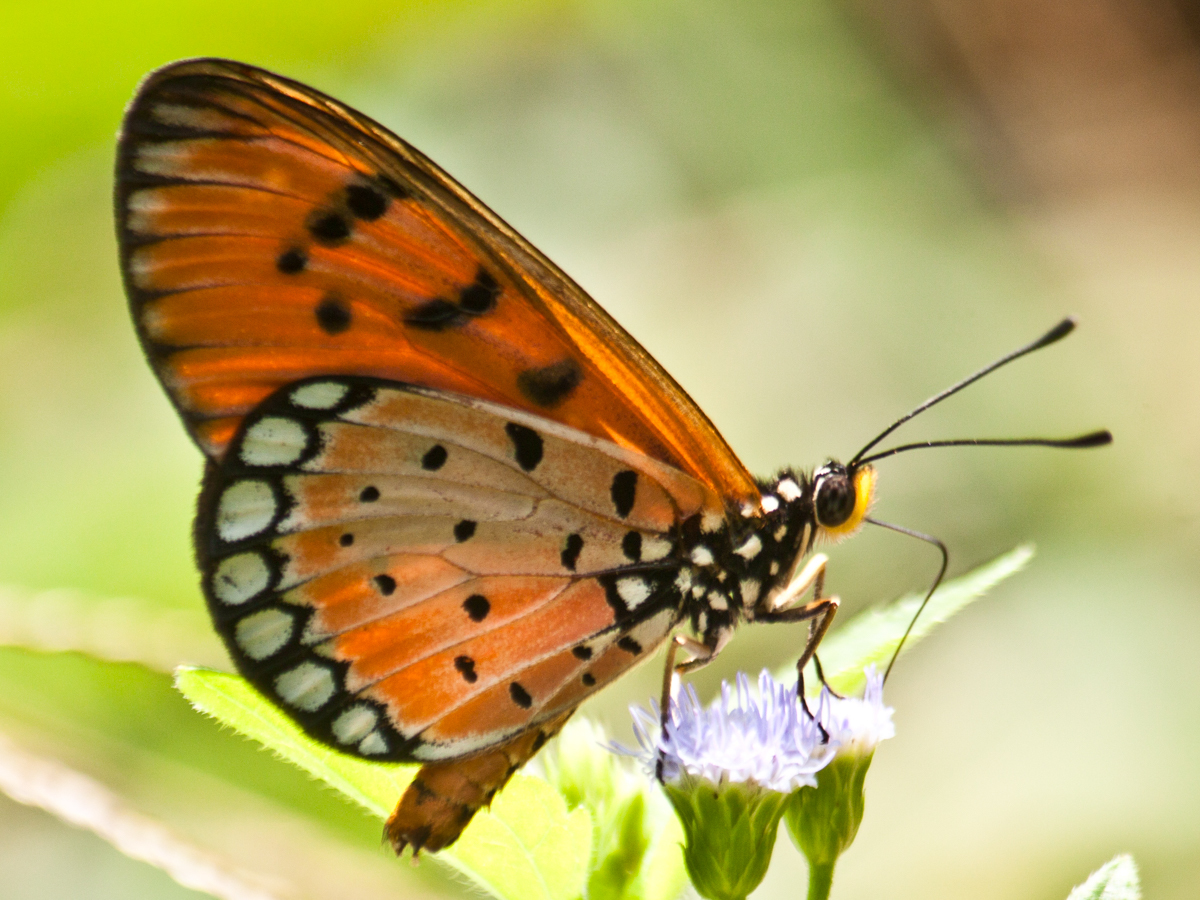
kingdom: Animalia
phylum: Arthropoda
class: Insecta
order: Lepidoptera
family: Nymphalidae
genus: Acraea
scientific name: Acraea terpsicore
